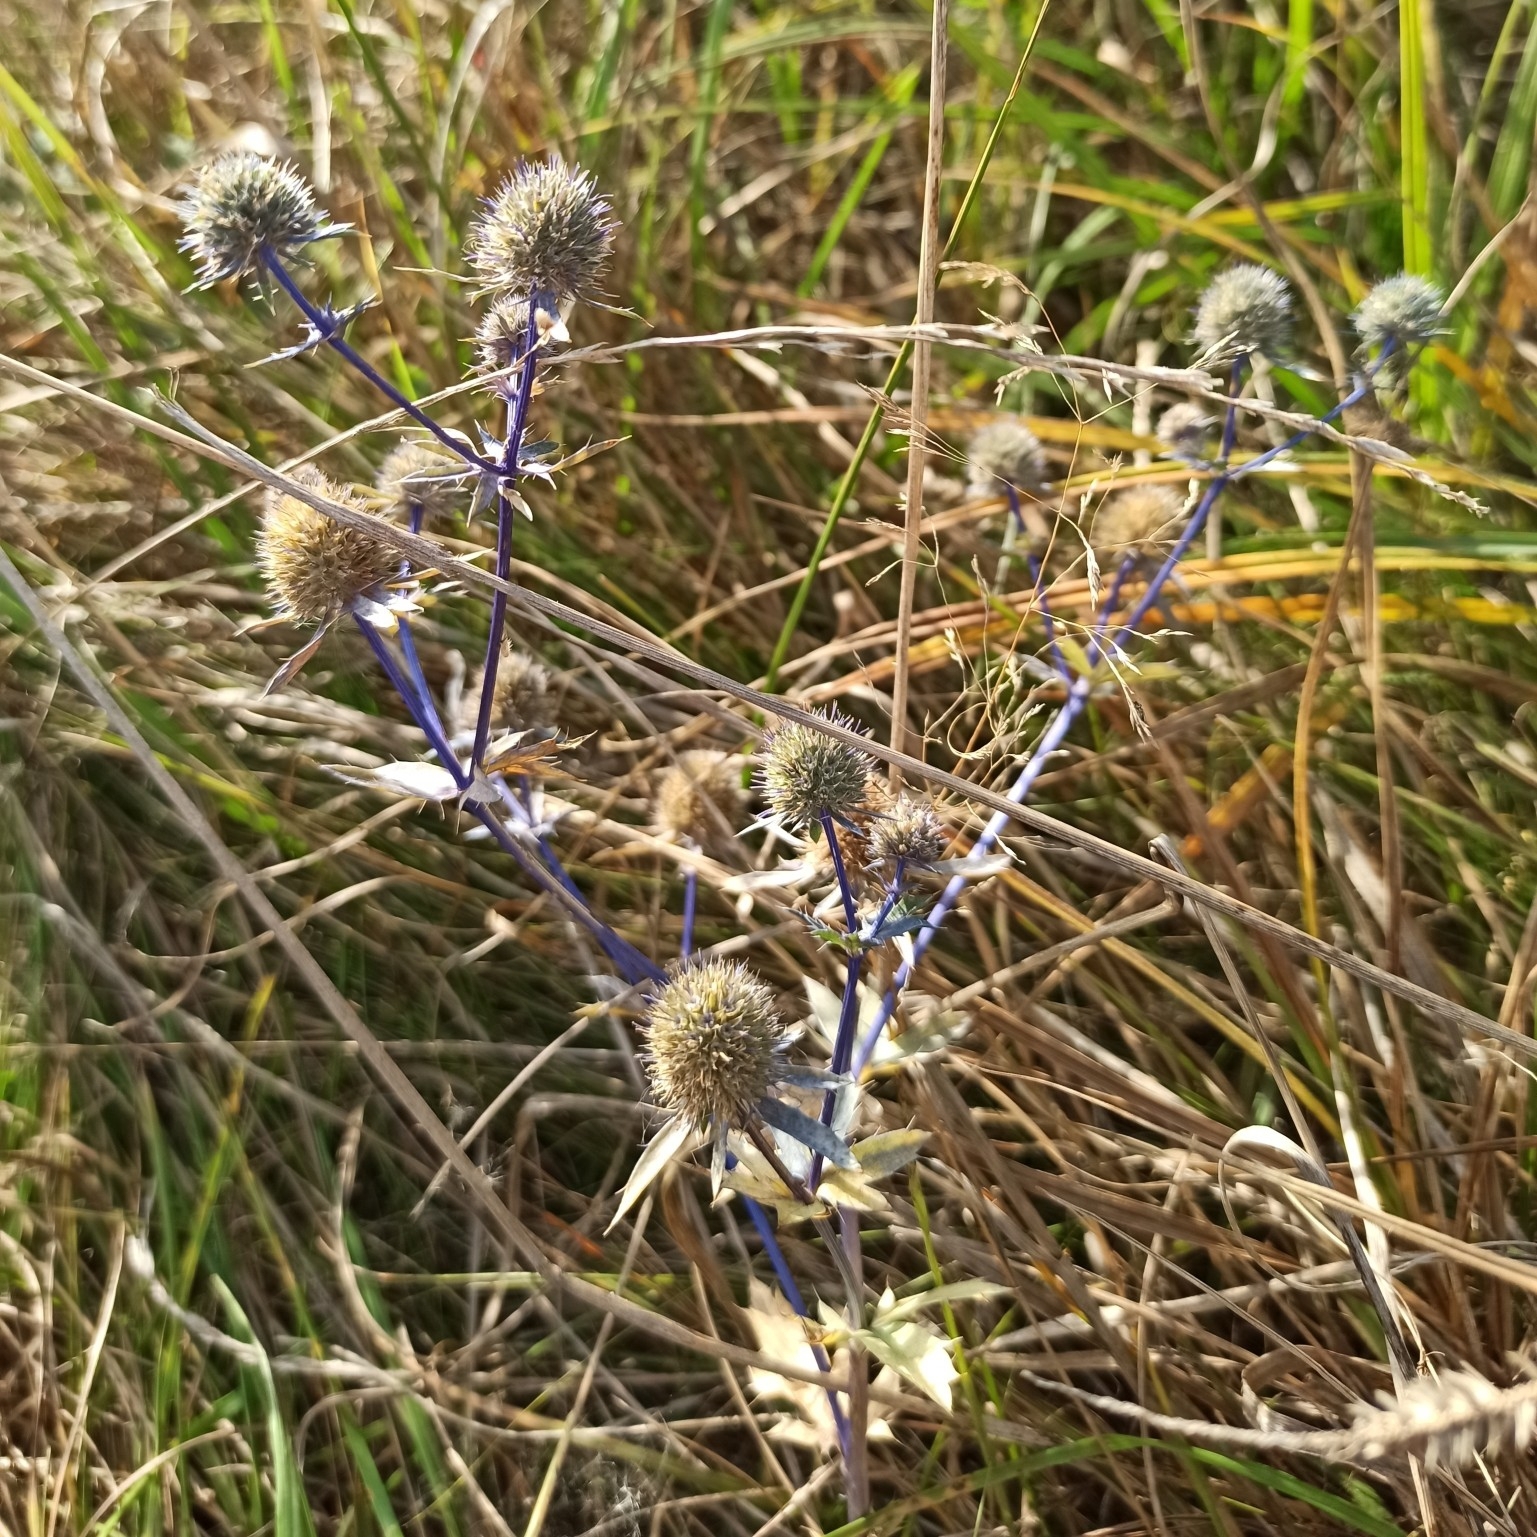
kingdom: Plantae
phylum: Tracheophyta
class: Magnoliopsida
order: Apiales
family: Apiaceae
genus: Eryngium
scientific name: Eryngium planum
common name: Blue eryngo
